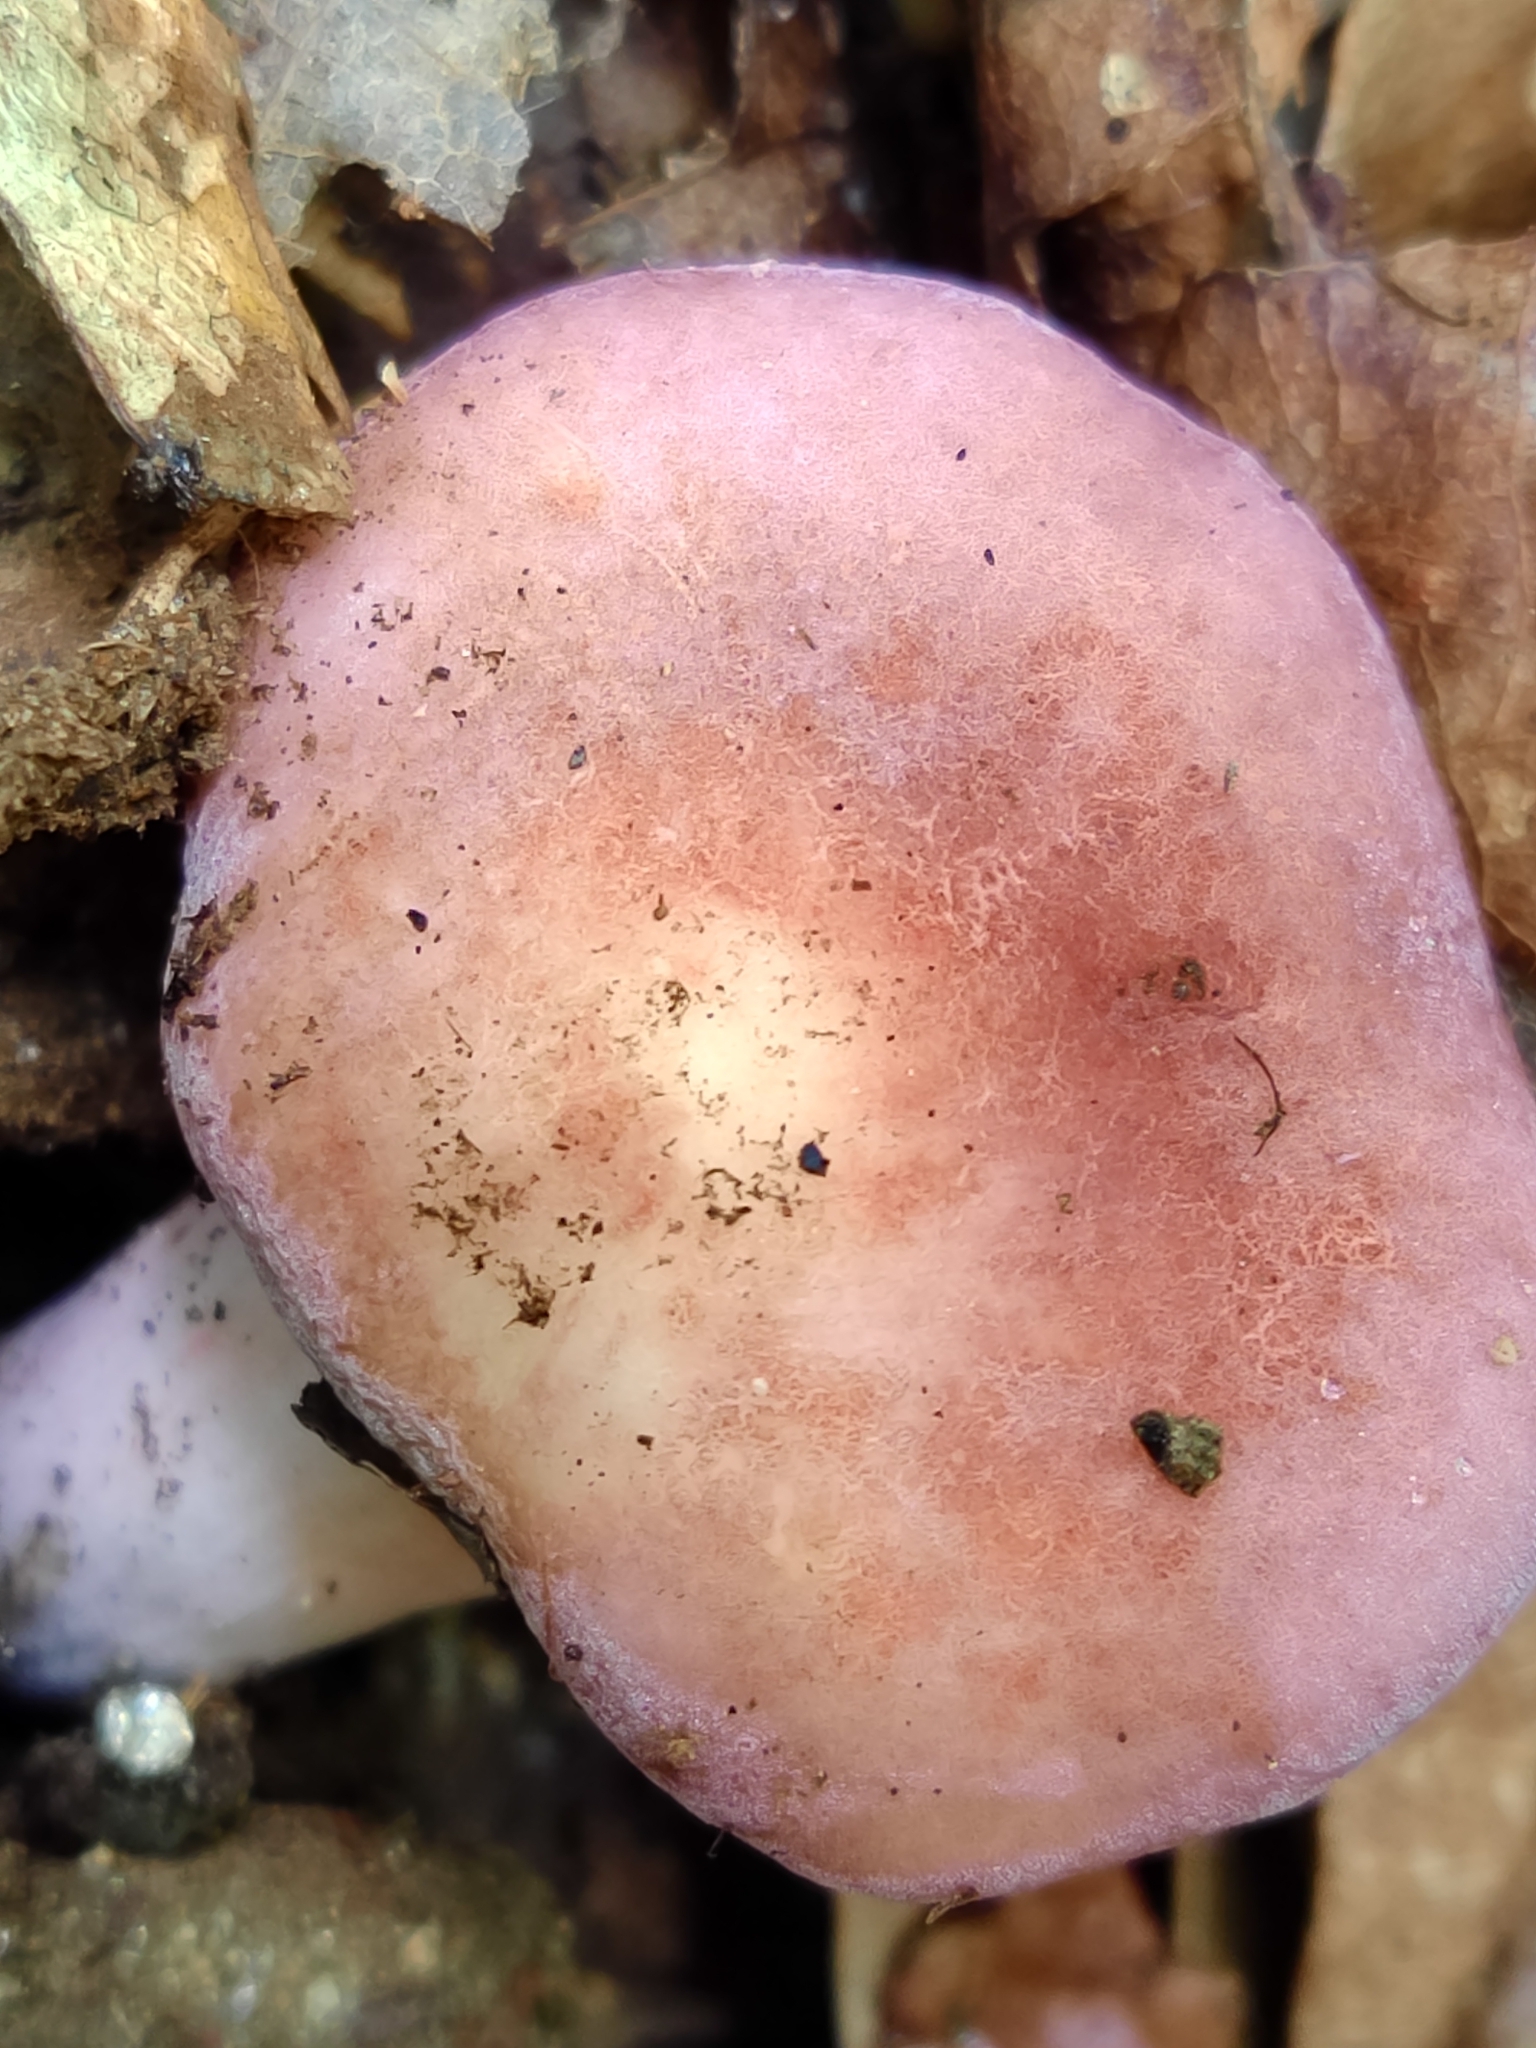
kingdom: Fungi
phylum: Basidiomycota
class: Agaricomycetes
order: Russulales
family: Russulaceae
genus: Russula
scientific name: Russula amoena
